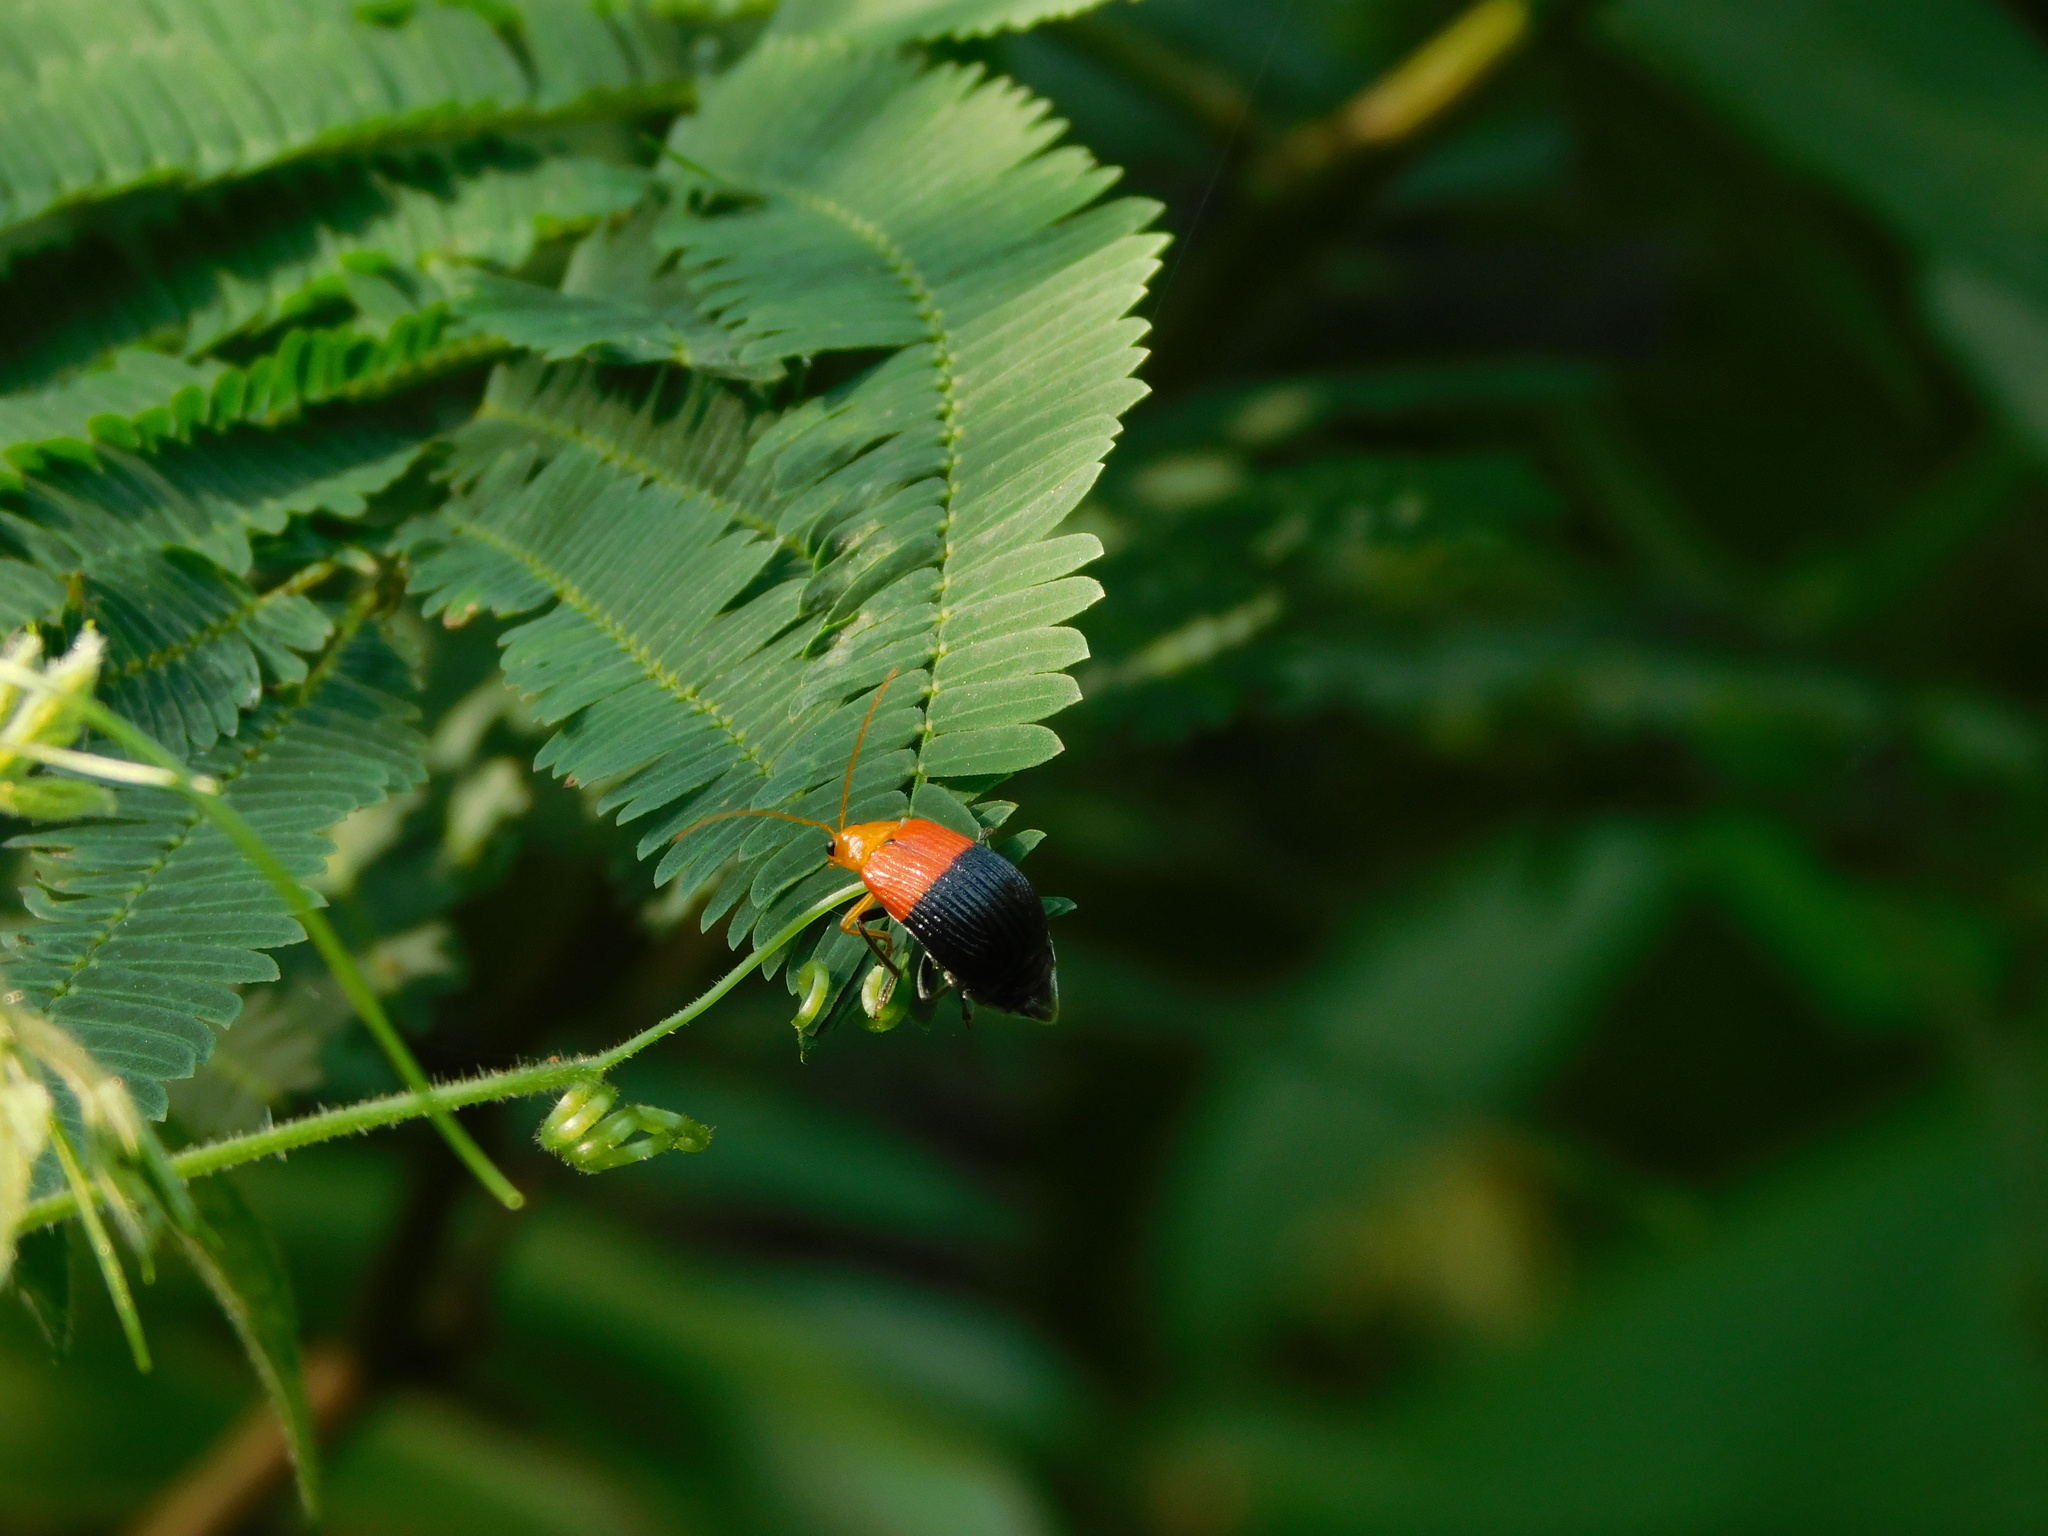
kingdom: Animalia
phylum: Arthropoda
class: Insecta
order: Coleoptera
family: Chrysomelidae
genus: Aulacophora
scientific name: Aulacophora
